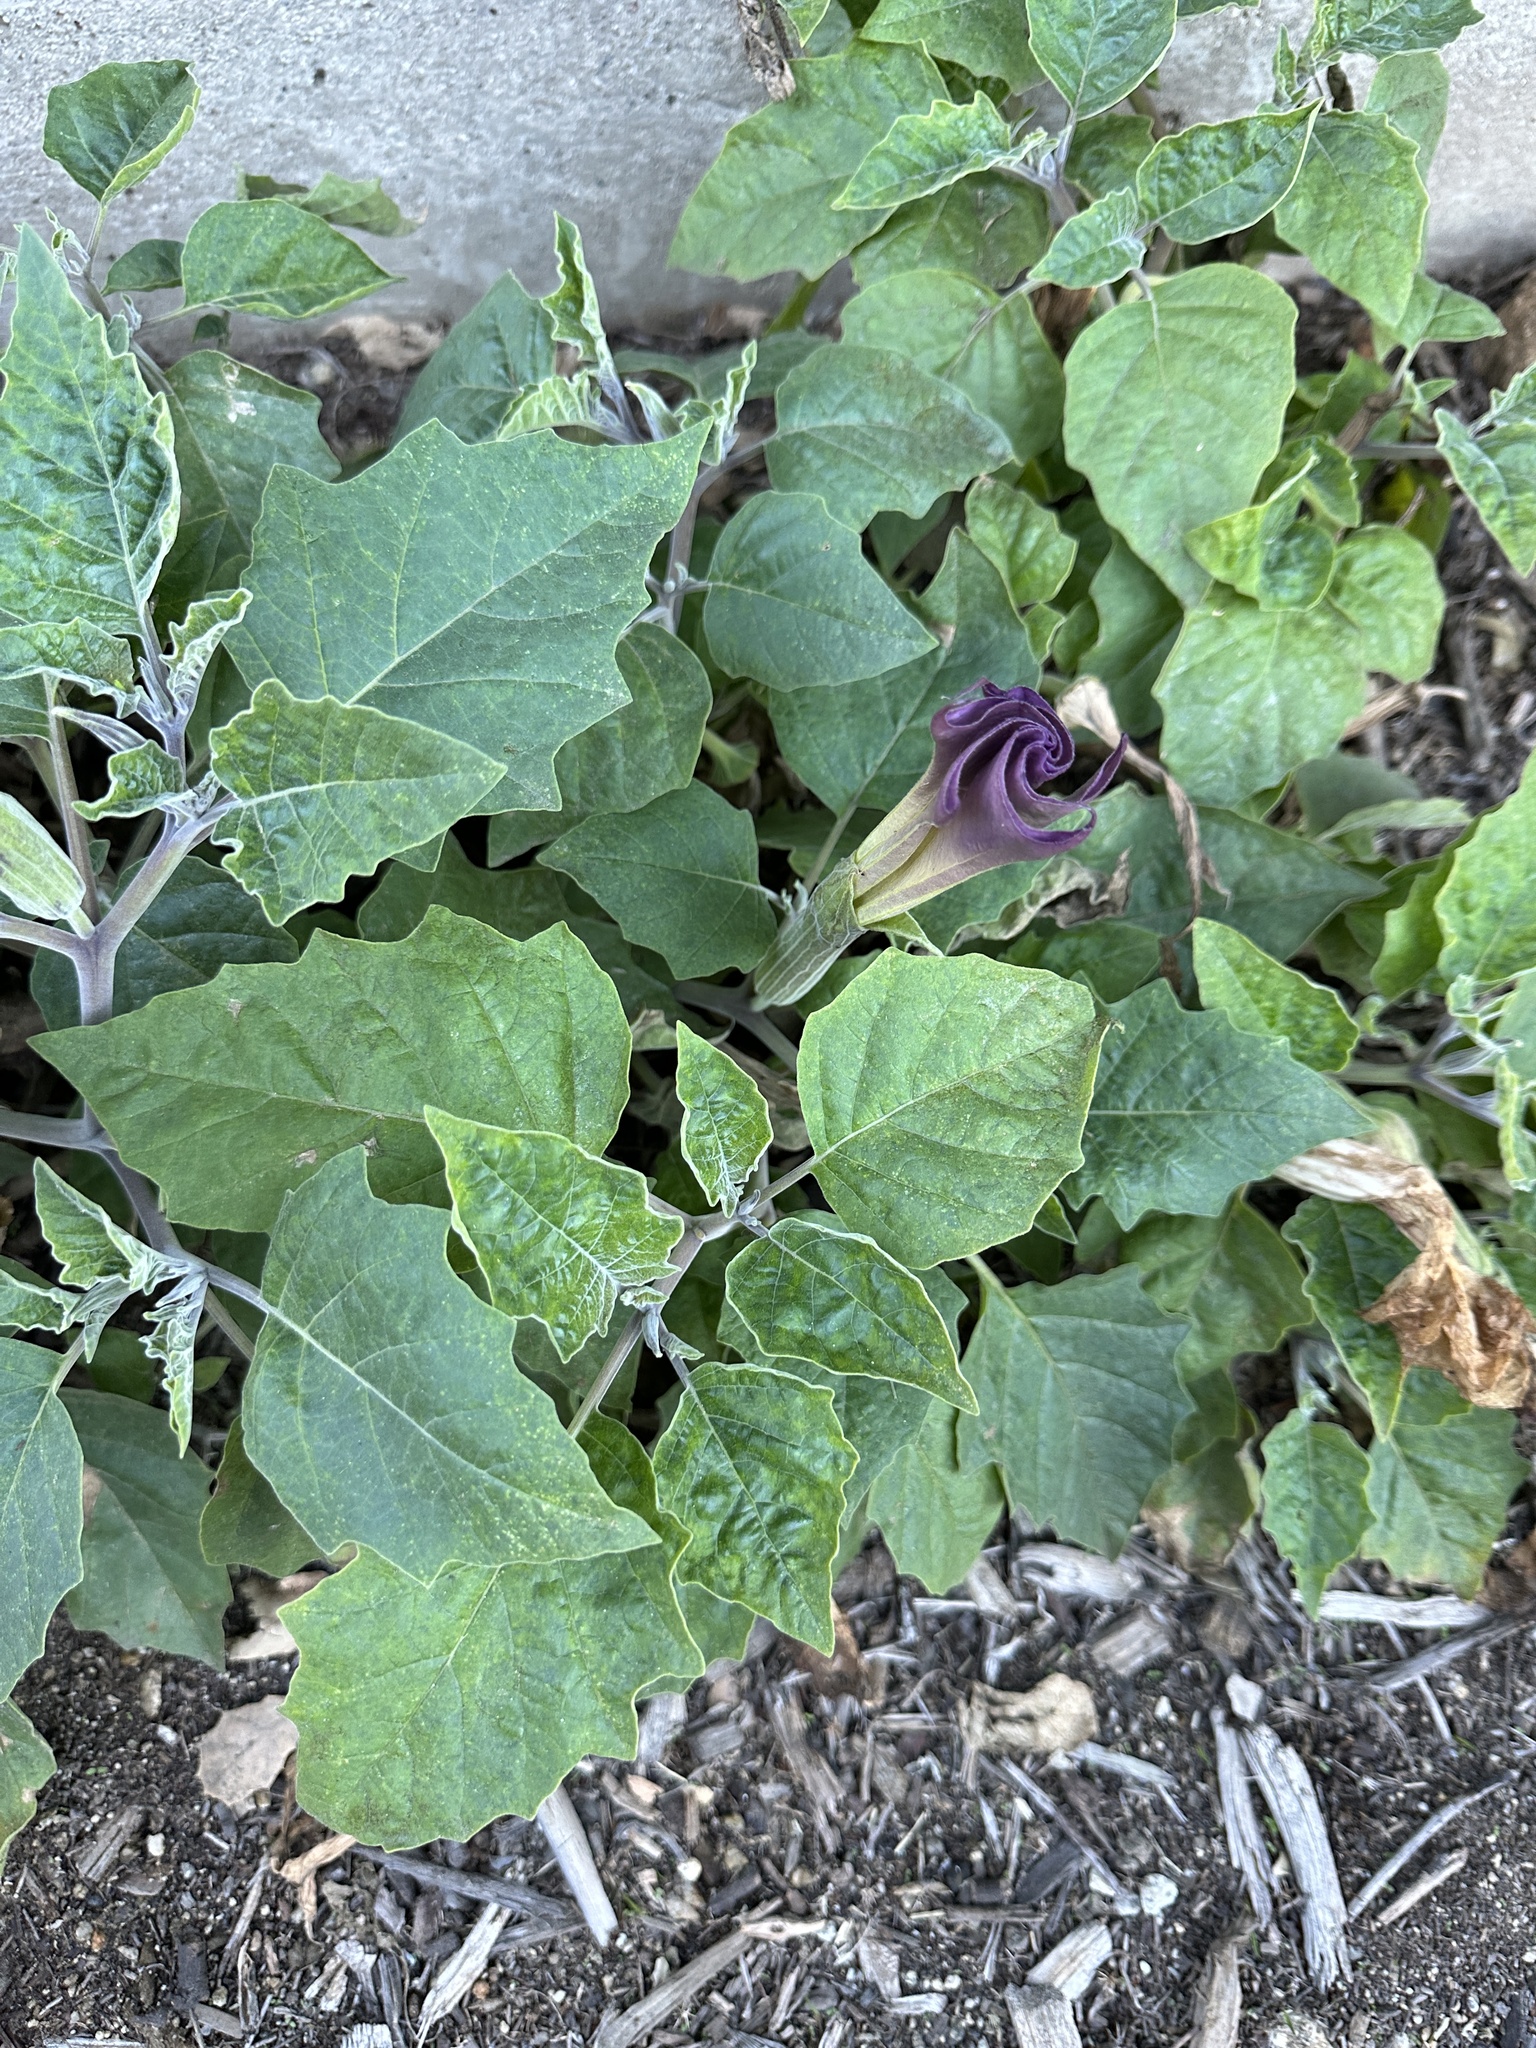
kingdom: Plantae
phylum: Tracheophyta
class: Magnoliopsida
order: Solanales
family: Solanaceae
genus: Datura
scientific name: Datura wrightii
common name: Sacred thorn-apple
